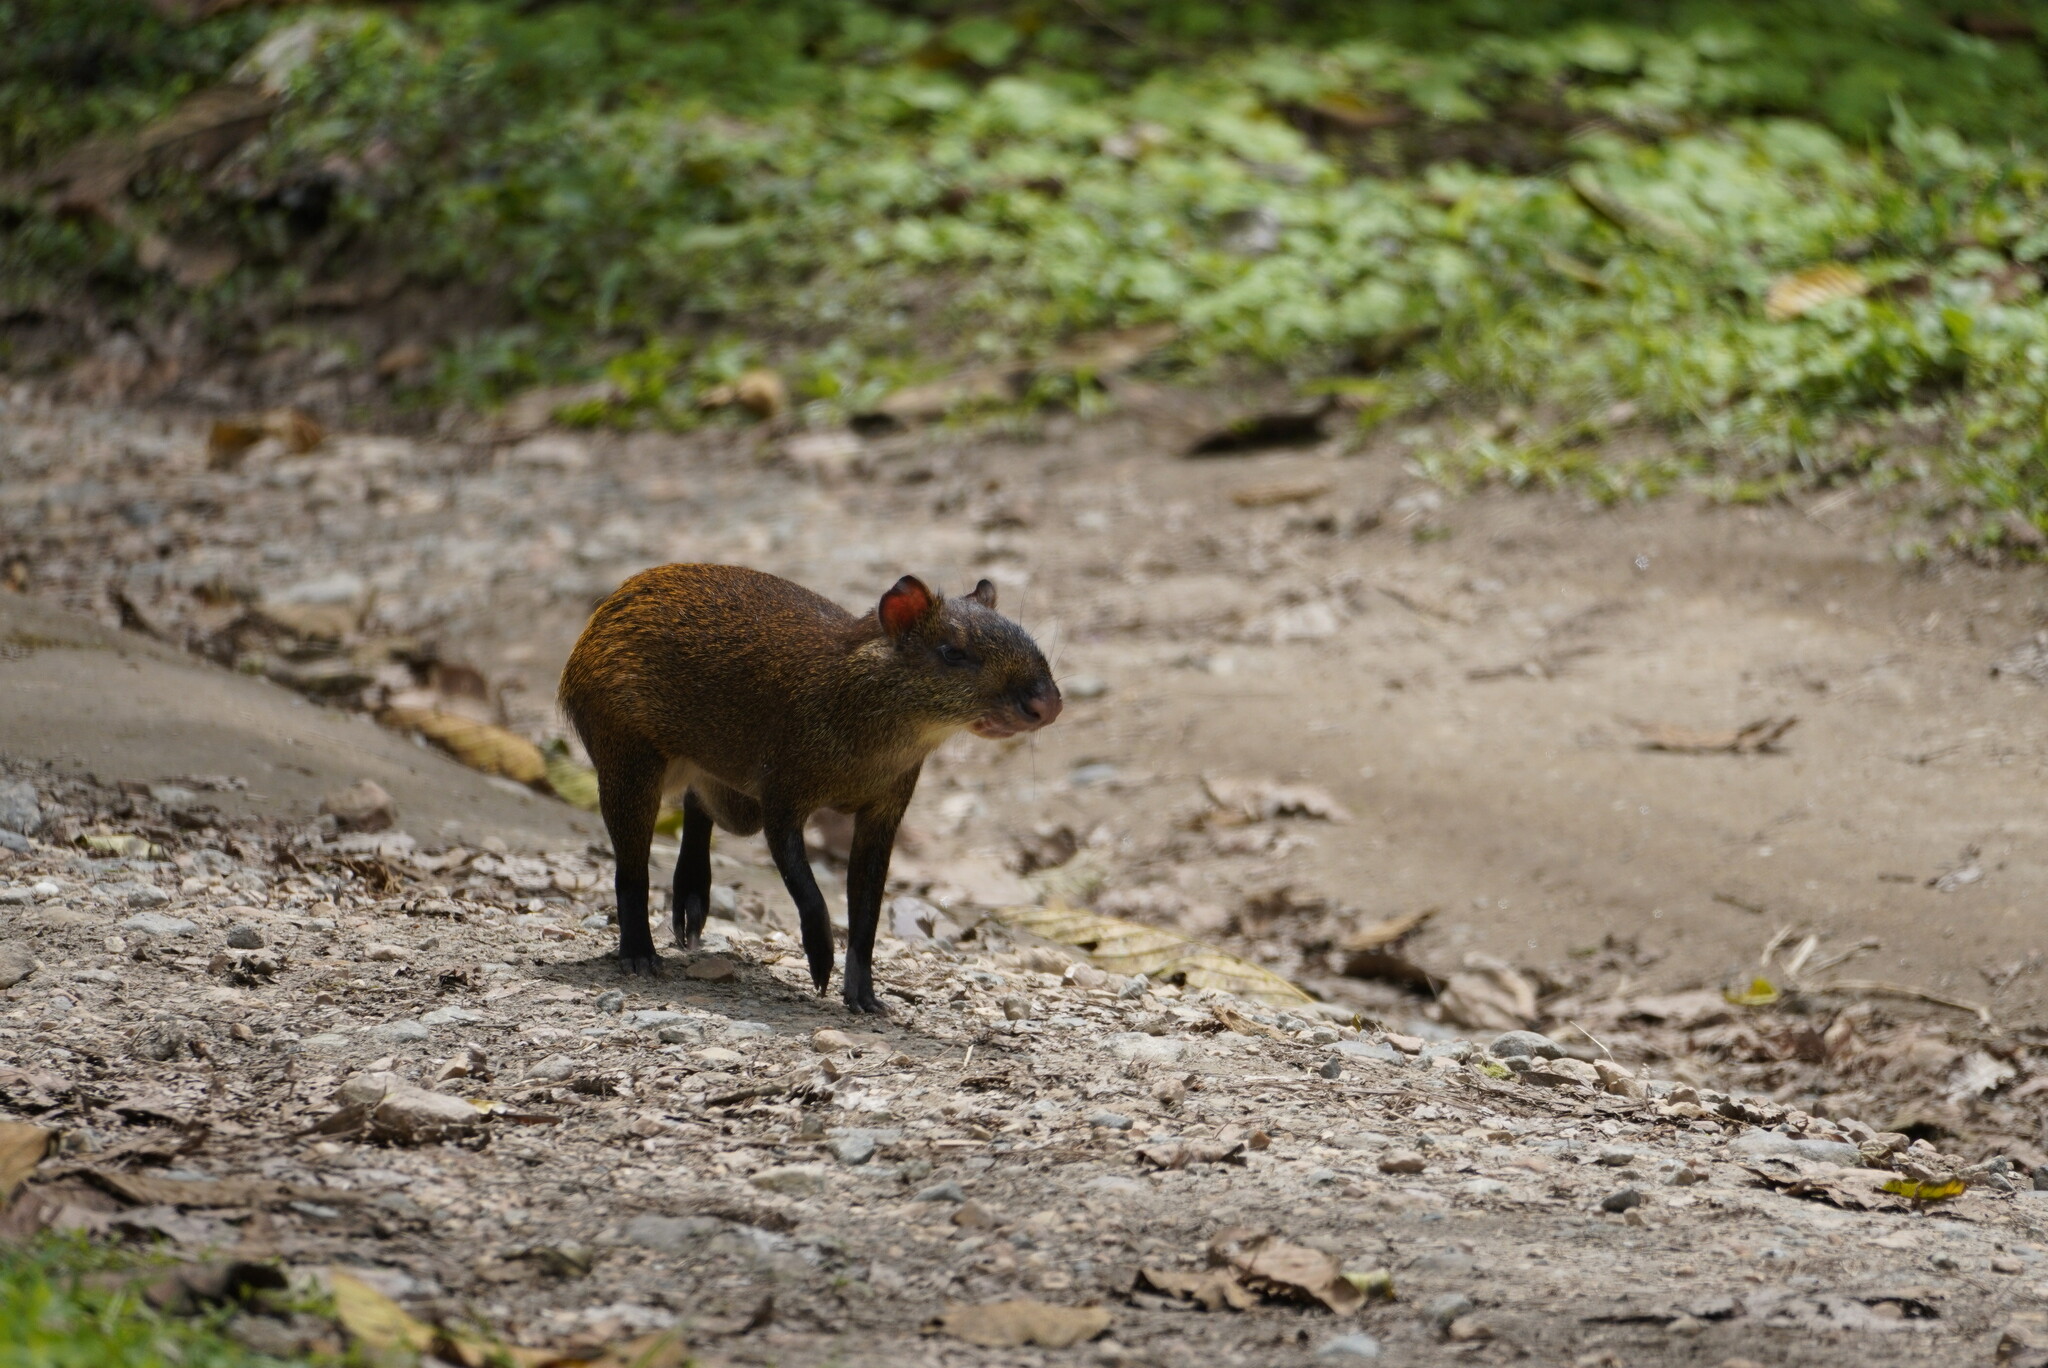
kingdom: Animalia
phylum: Chordata
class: Mammalia
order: Rodentia
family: Dasyproctidae
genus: Dasyprocta
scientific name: Dasyprocta punctata
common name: Central american agouti
